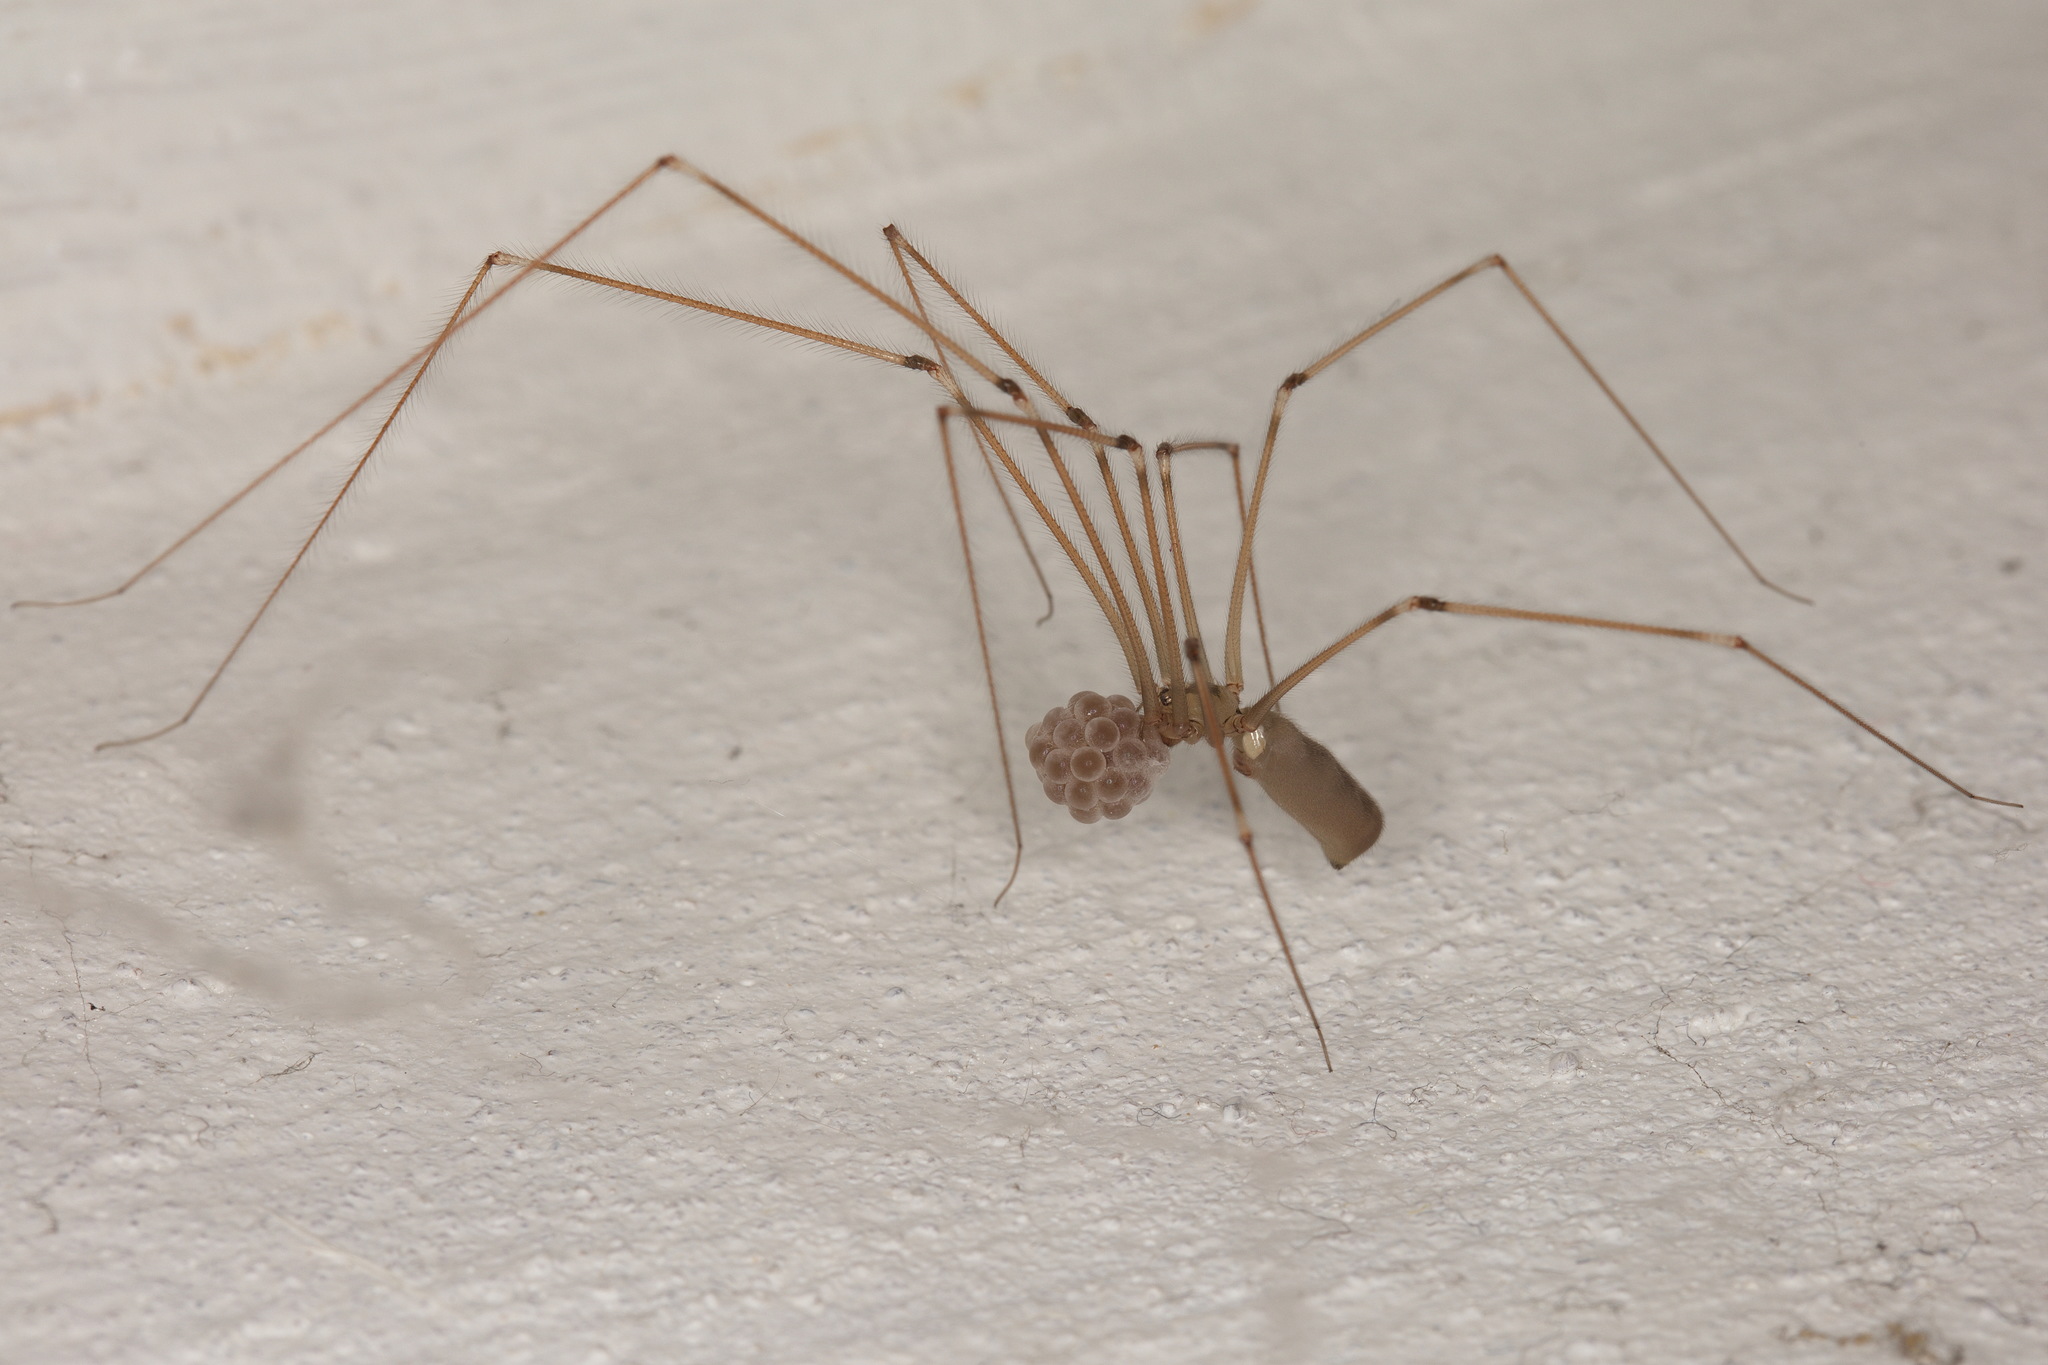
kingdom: Animalia
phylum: Arthropoda
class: Arachnida
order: Araneae
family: Pholcidae
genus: Pholcus
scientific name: Pholcus phalangioides
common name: Longbodied cellar spider
